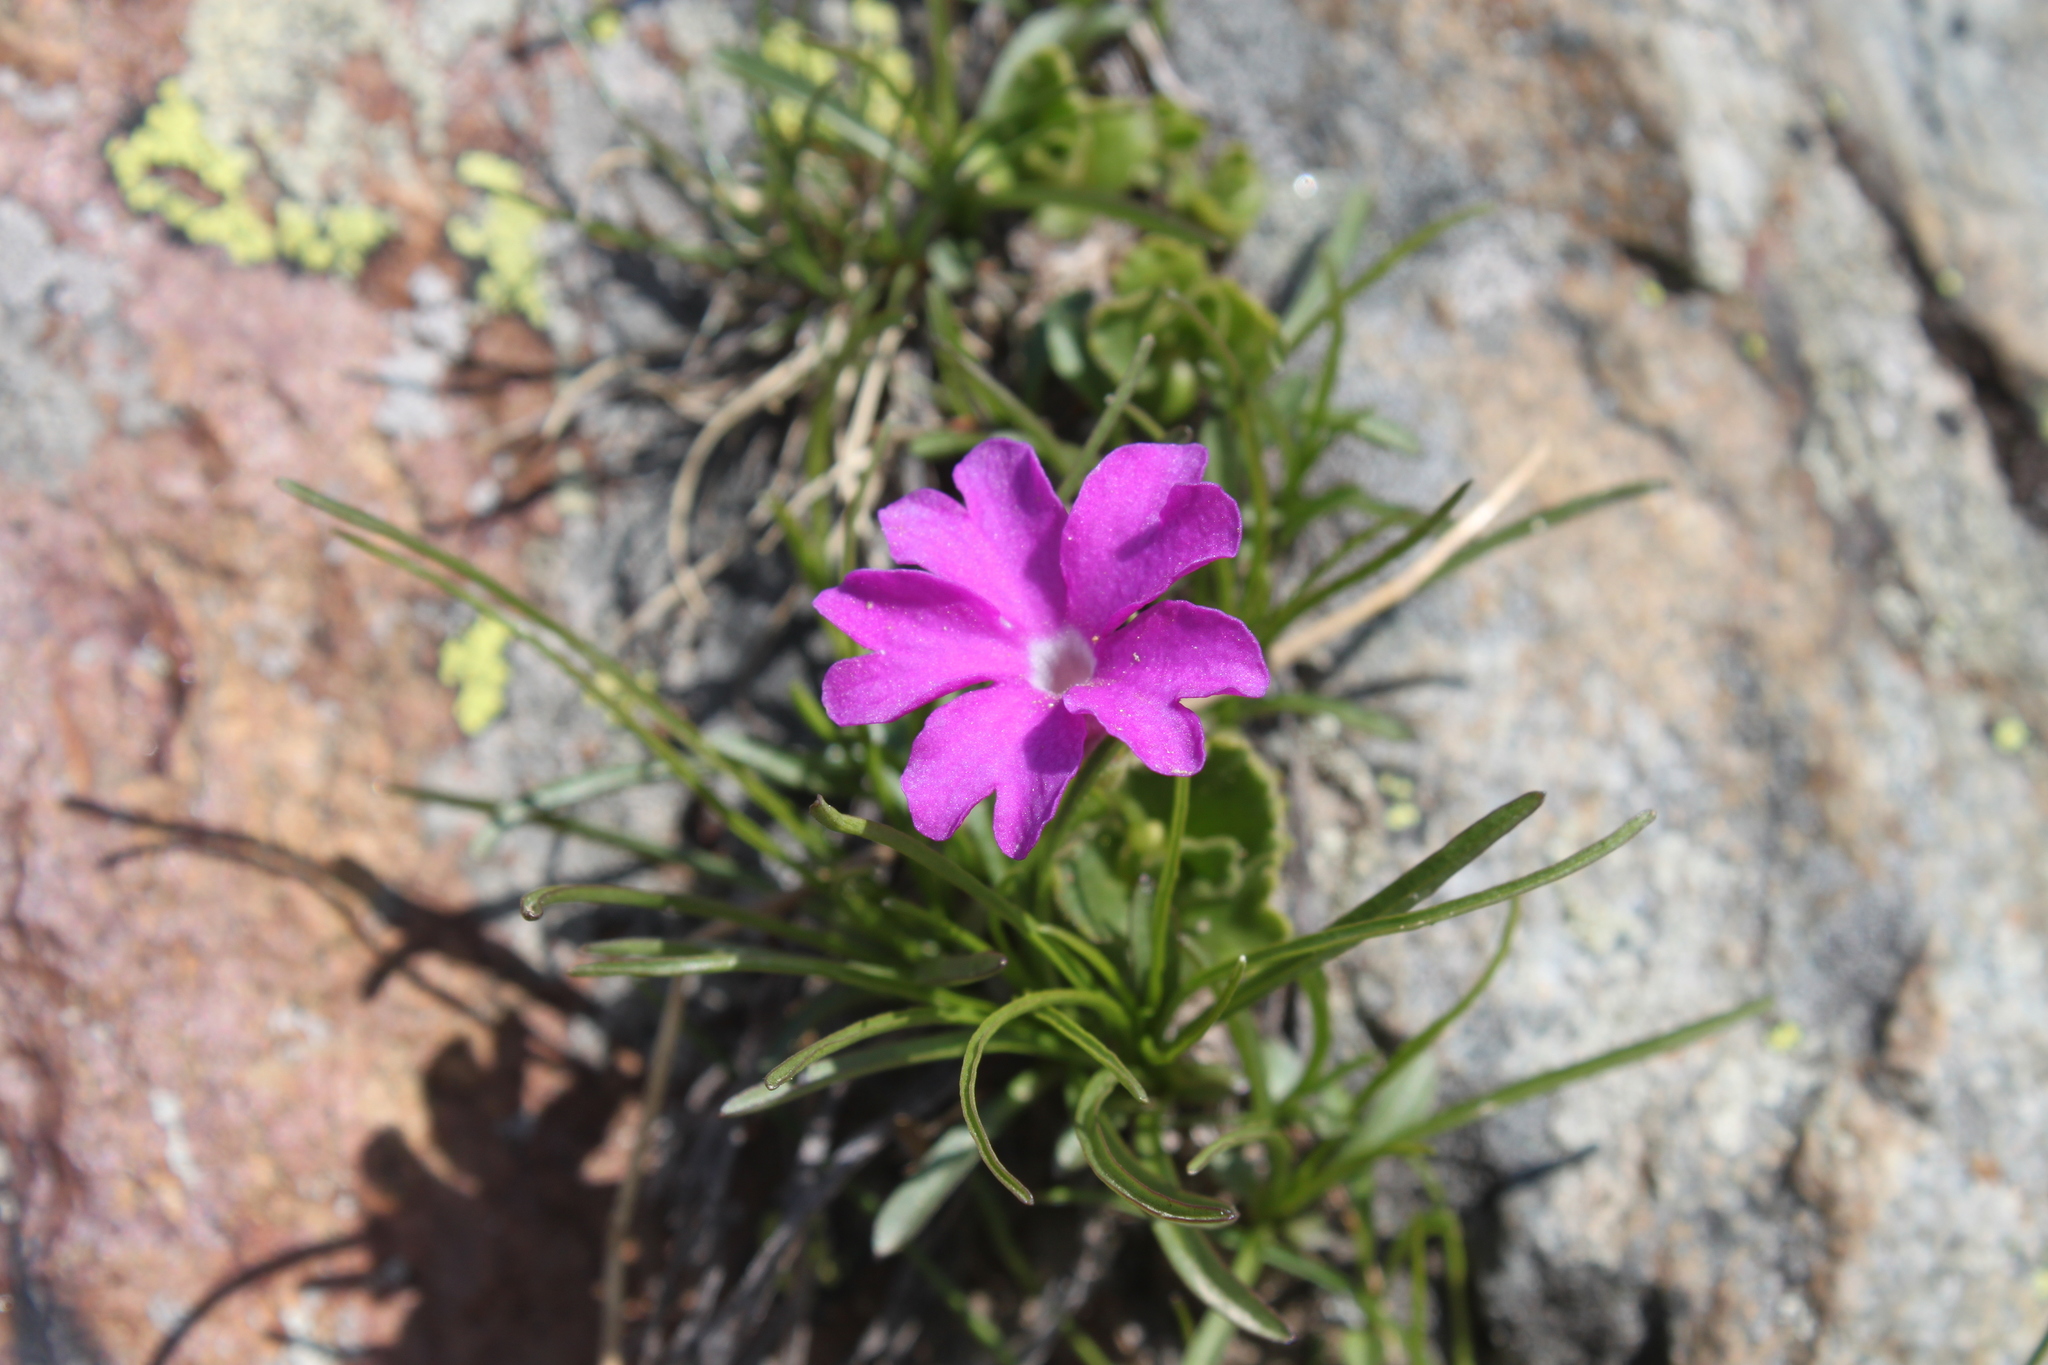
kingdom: Plantae
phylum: Tracheophyta
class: Magnoliopsida
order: Ericales
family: Primulaceae
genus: Primula
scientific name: Primula hirsuta
